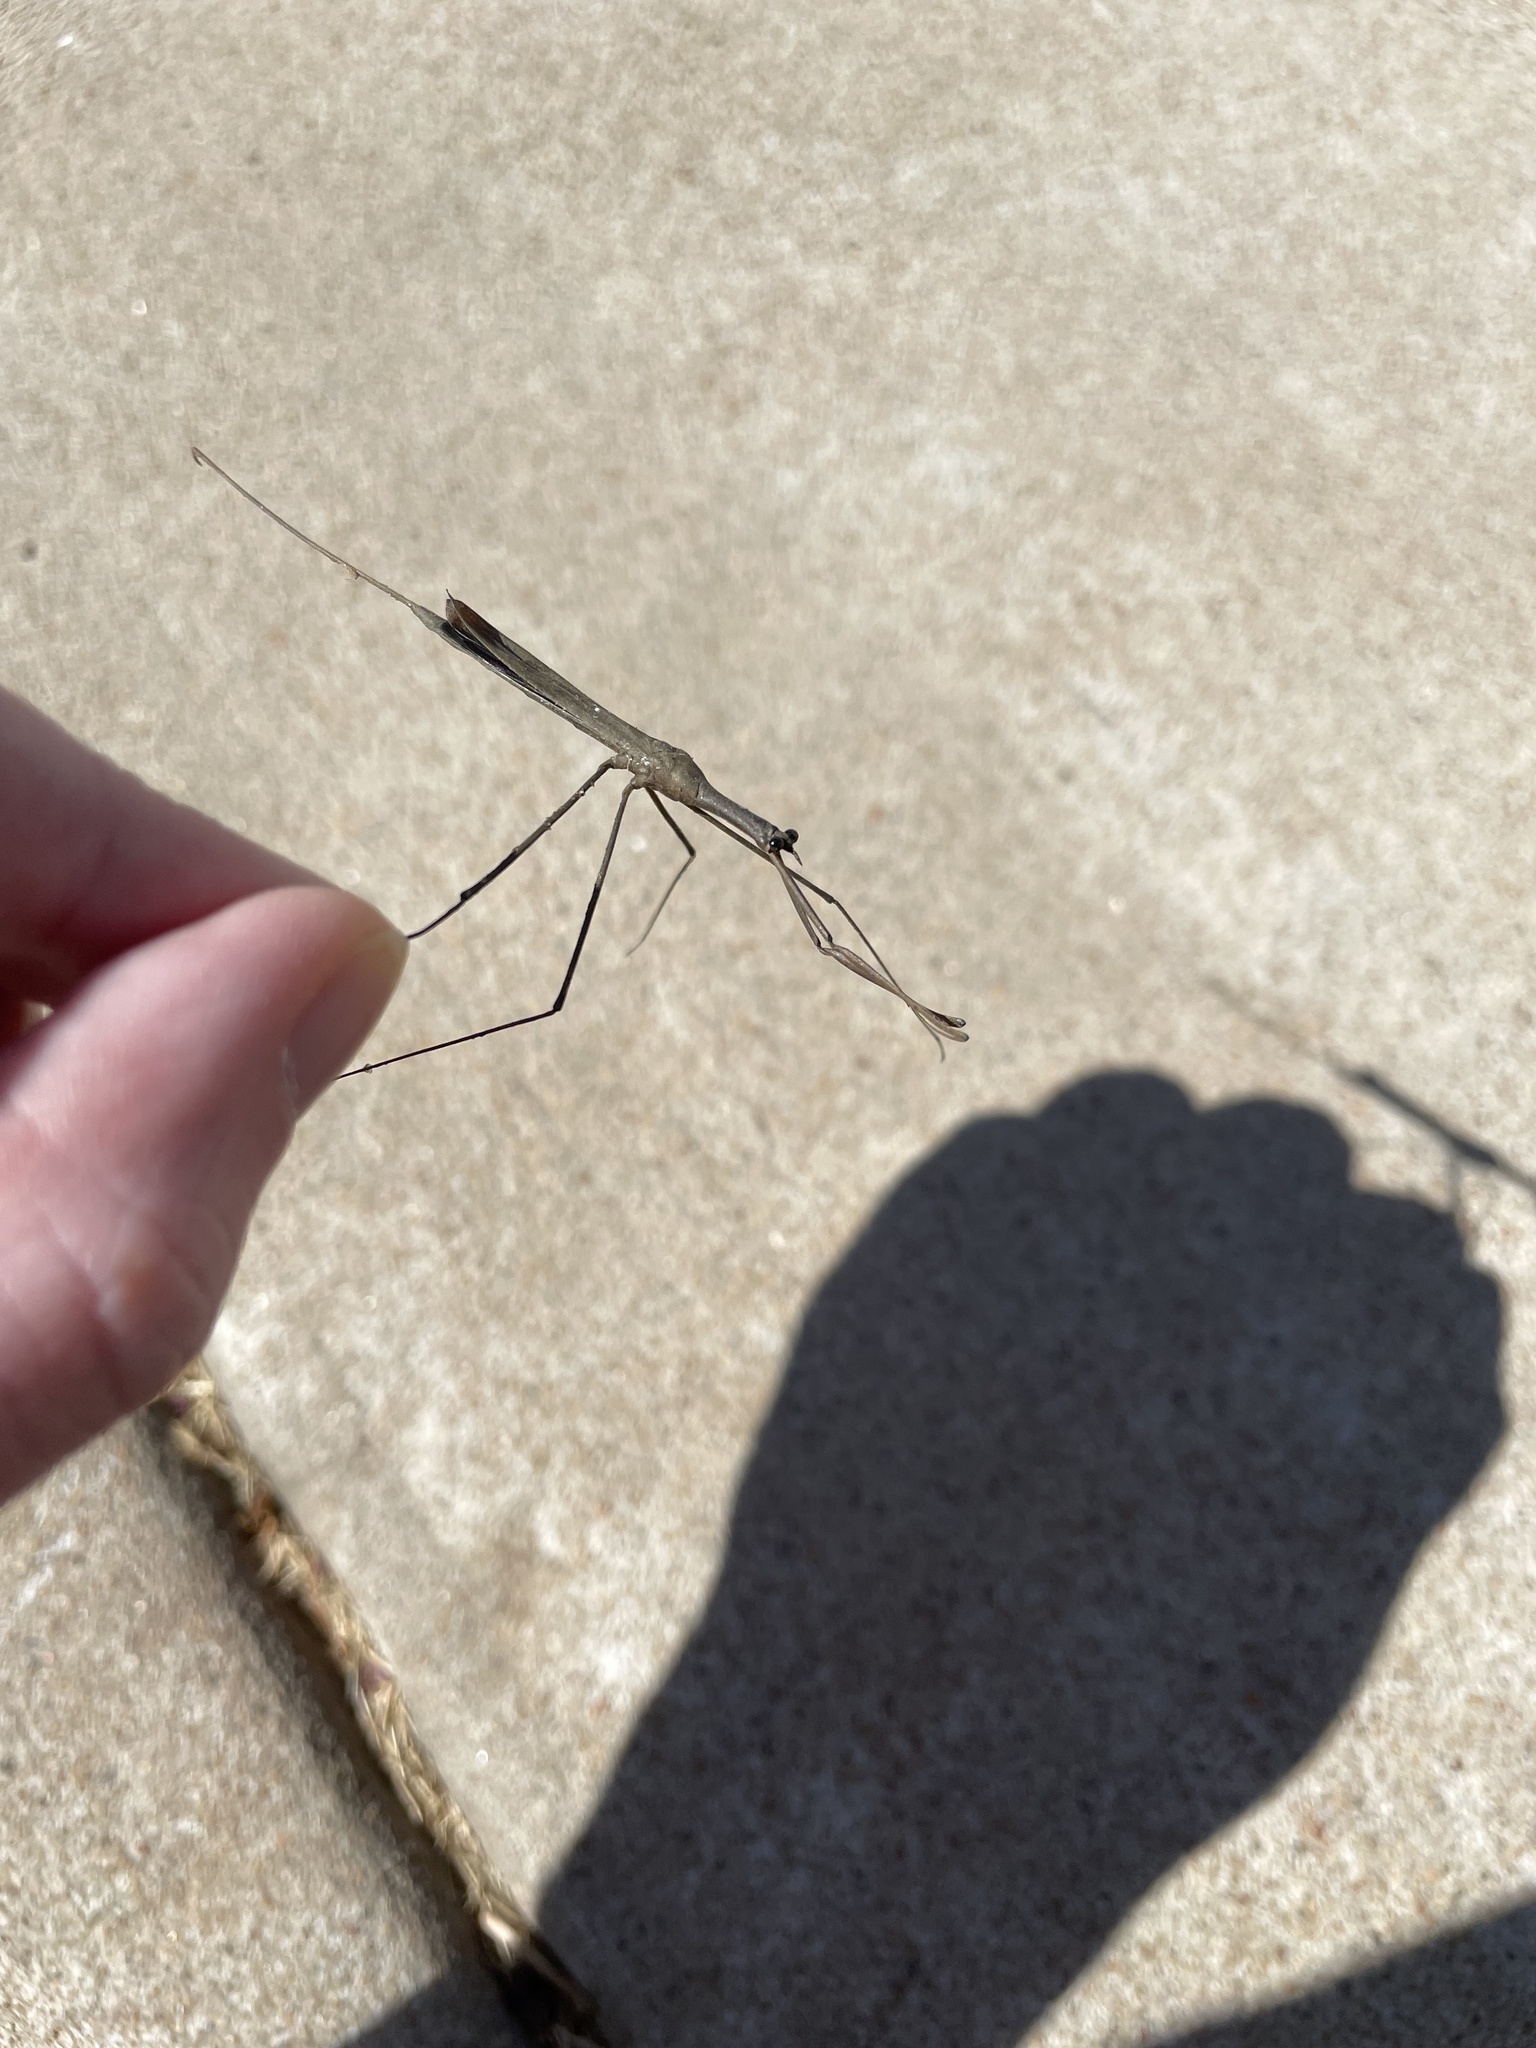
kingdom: Animalia
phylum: Arthropoda
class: Insecta
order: Hemiptera
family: Nepidae
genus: Ranatra
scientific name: Ranatra
